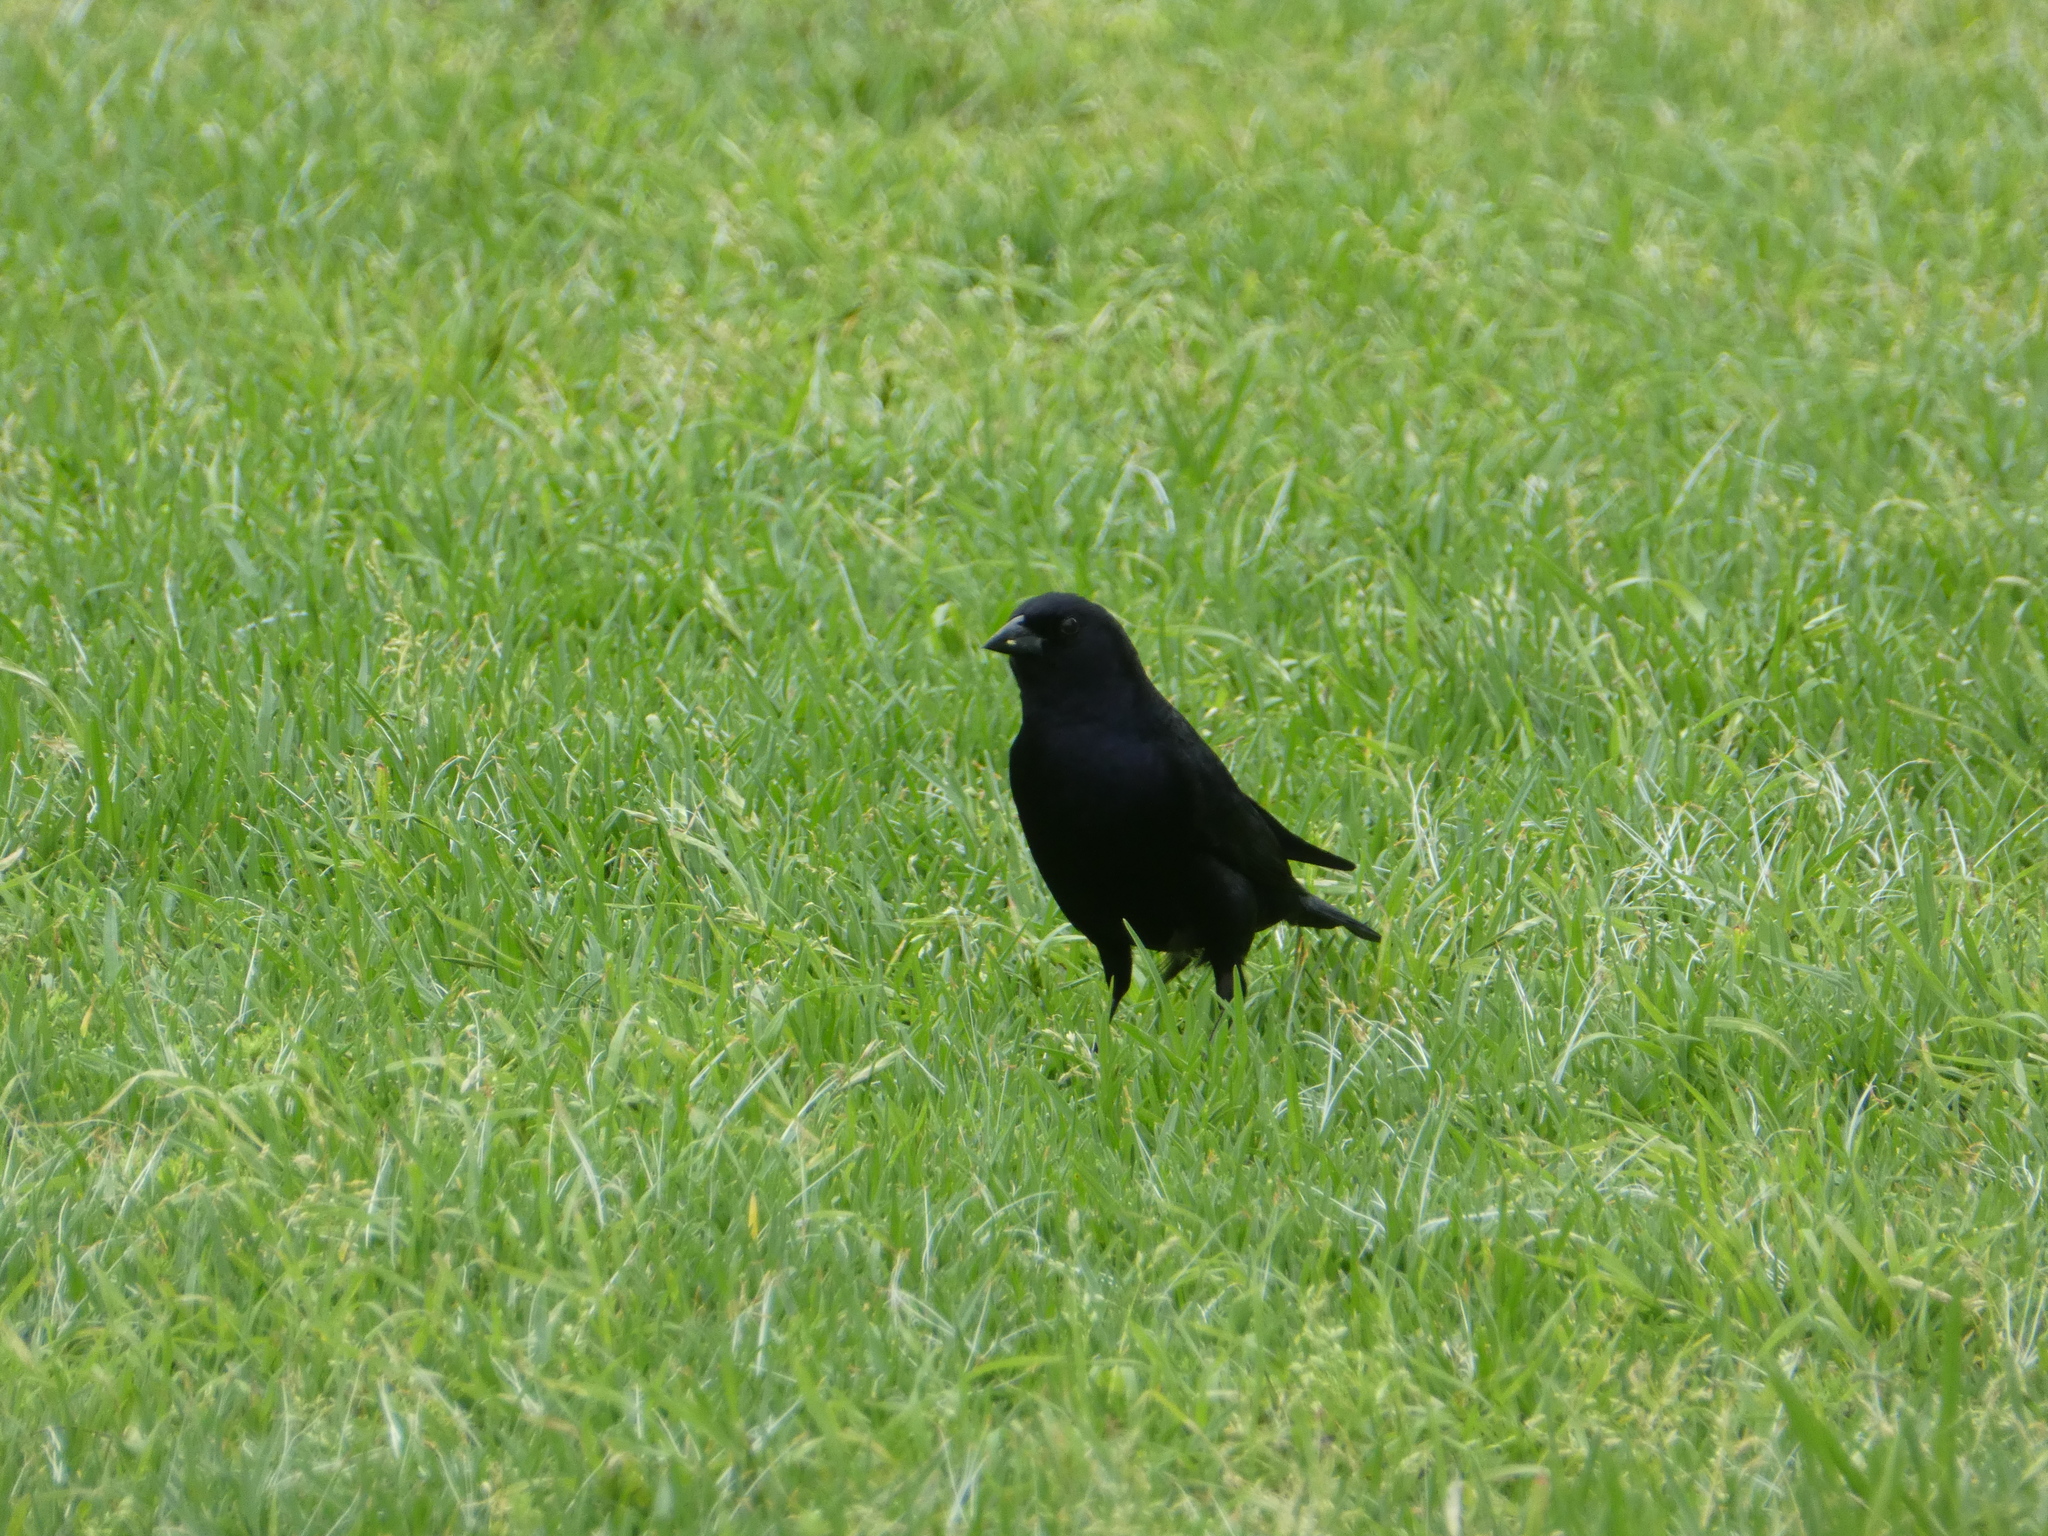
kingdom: Animalia
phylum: Chordata
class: Aves
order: Passeriformes
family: Icteridae
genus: Molothrus
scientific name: Molothrus bonariensis
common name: Shiny cowbird
